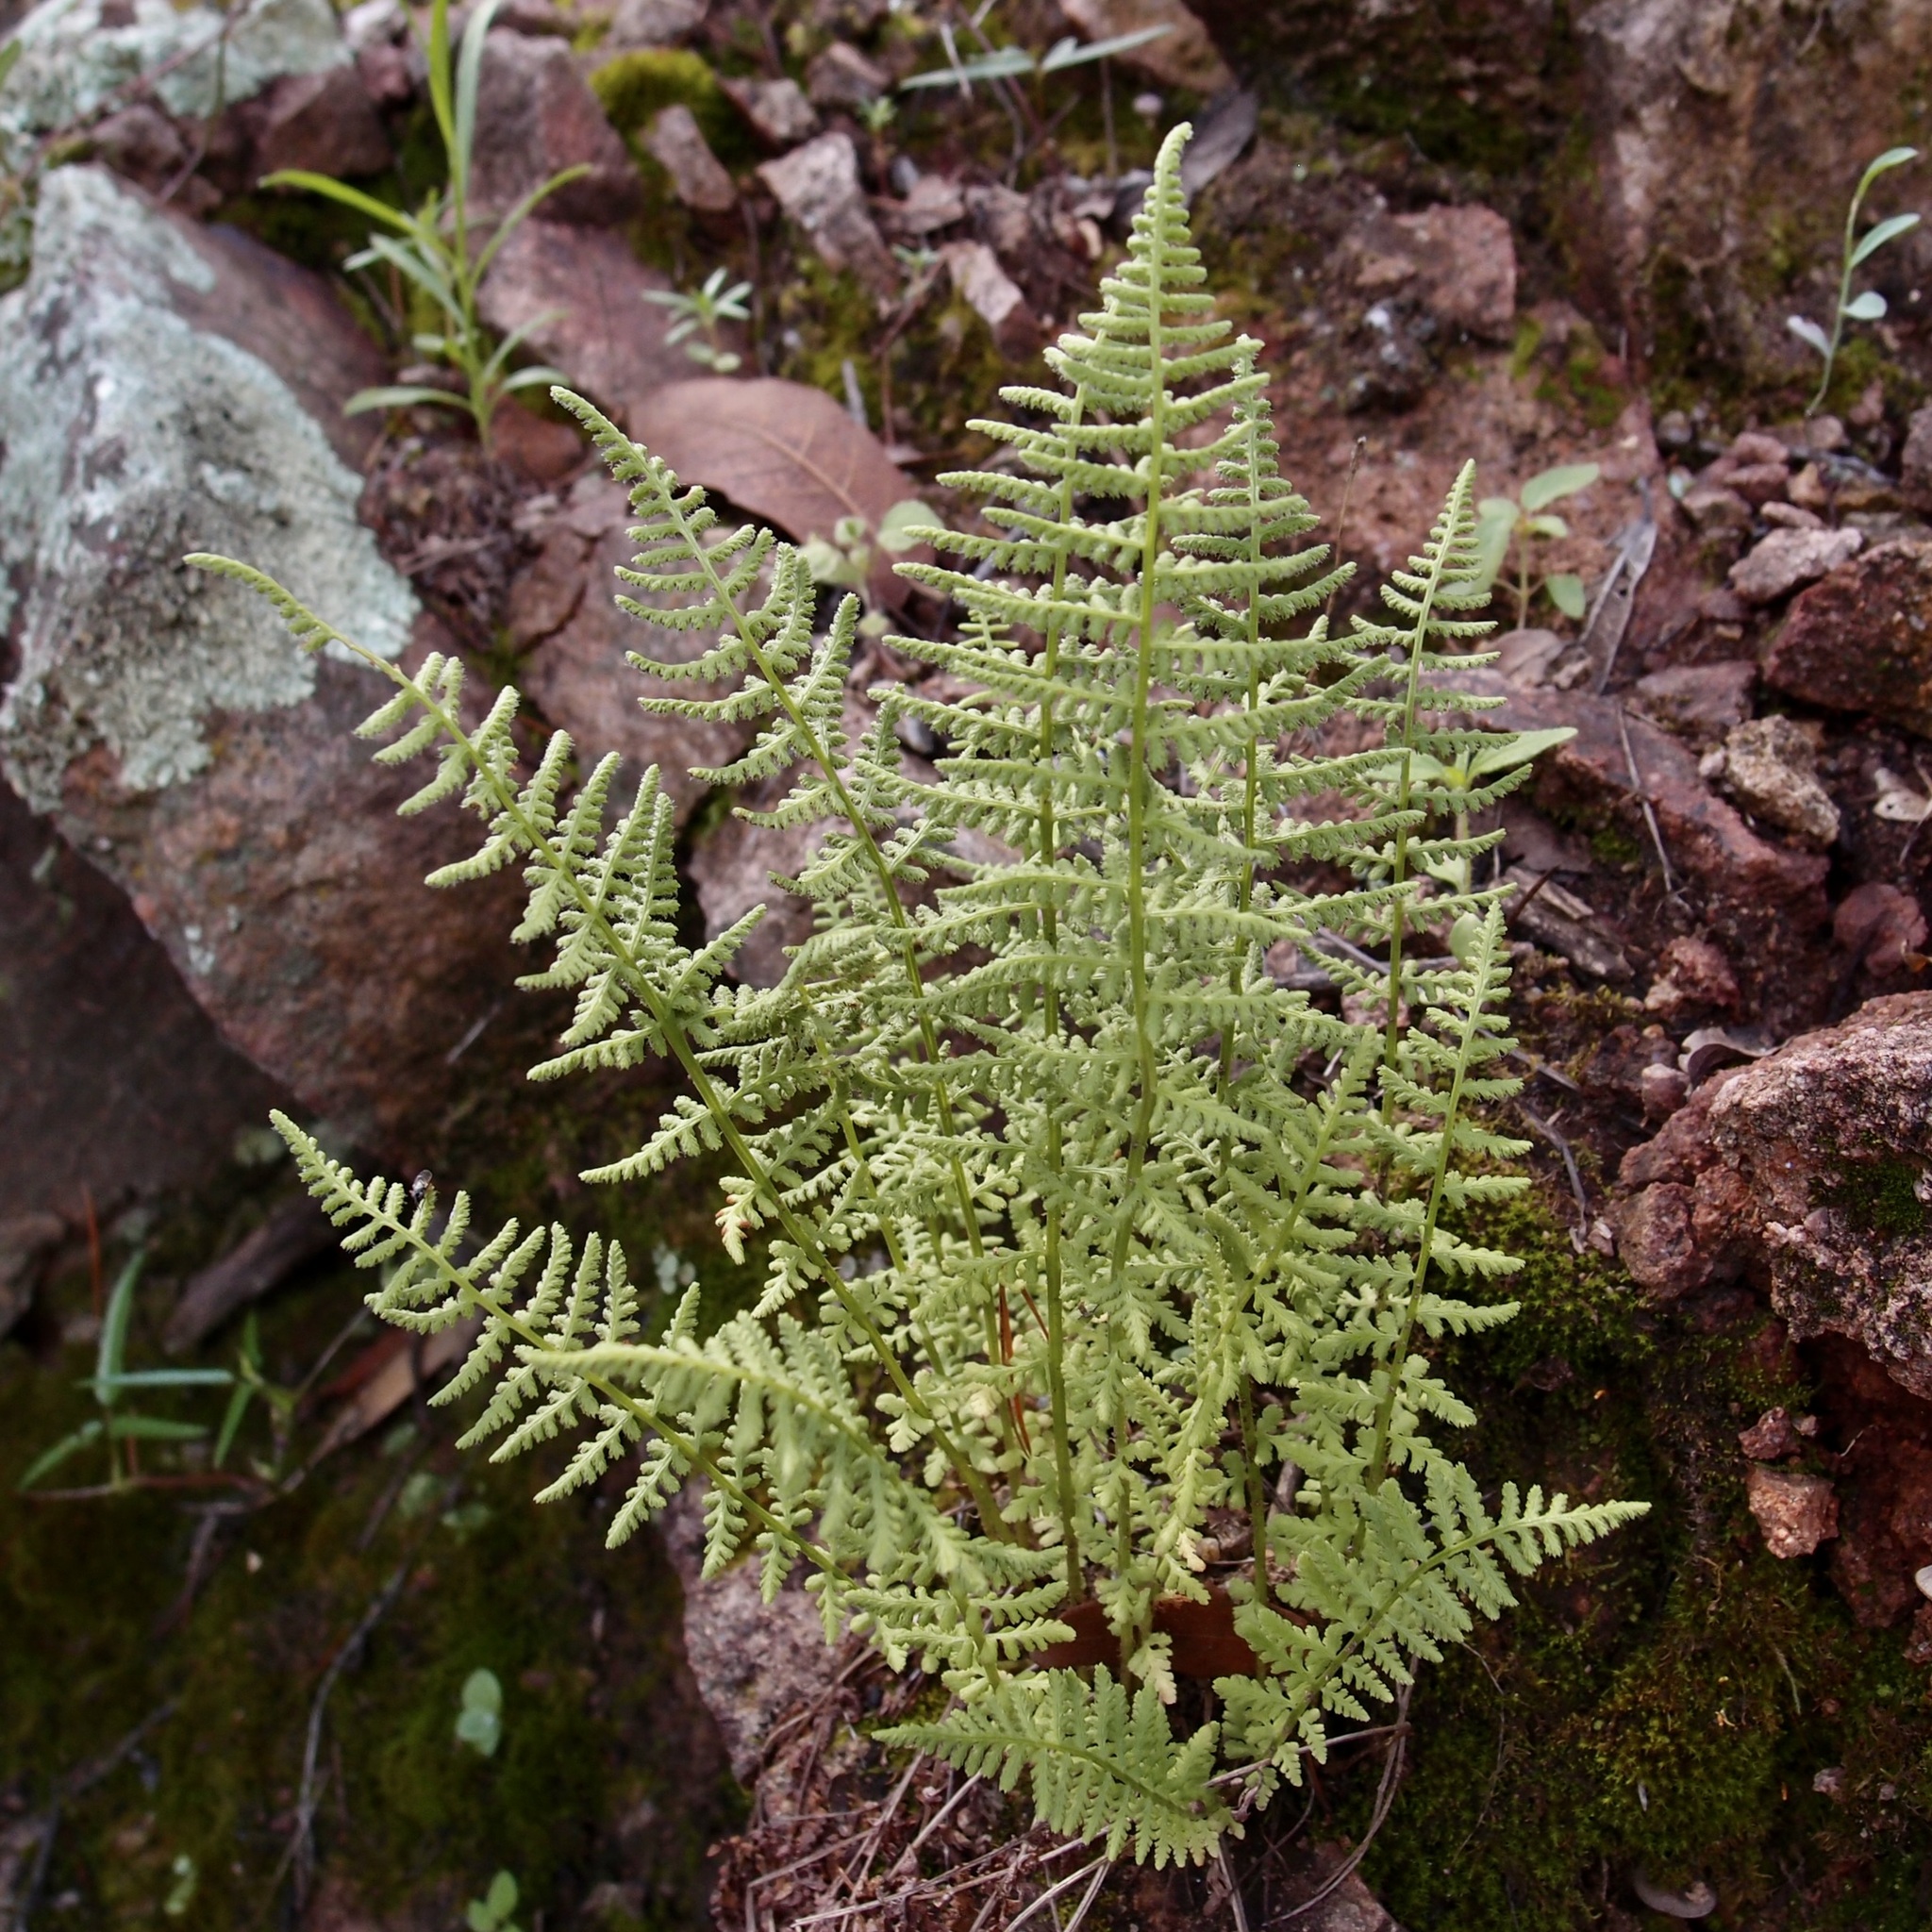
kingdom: Plantae
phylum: Tracheophyta
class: Polypodiopsida
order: Polypodiales
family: Woodsiaceae
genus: Physematium
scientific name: Physematium phillipsii
